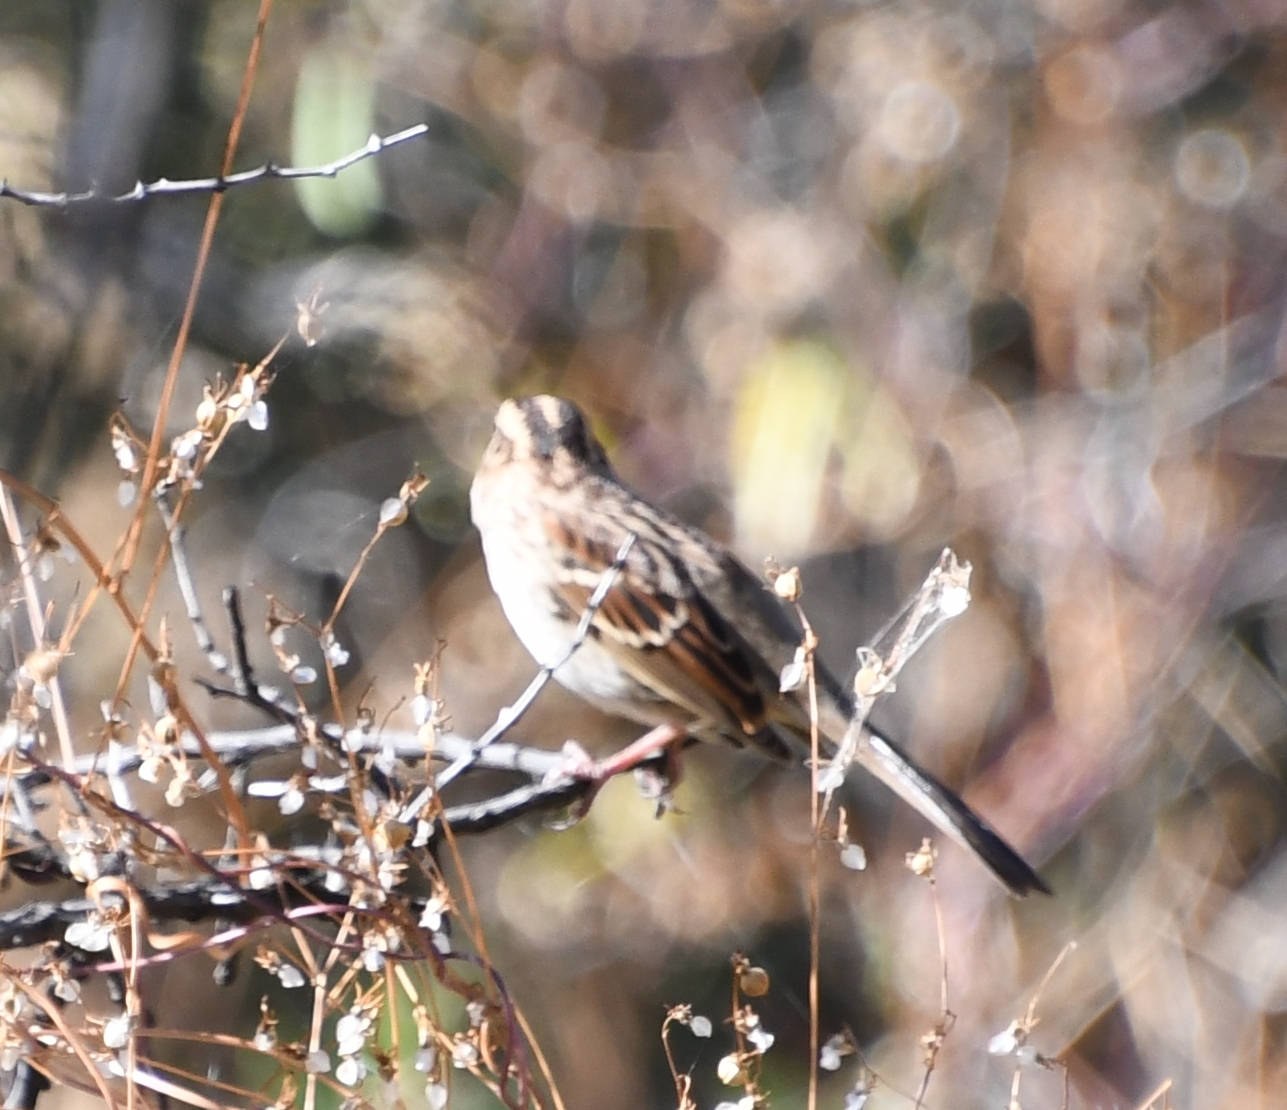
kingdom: Animalia
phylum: Chordata
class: Aves
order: Passeriformes
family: Passerellidae
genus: Zonotrichia
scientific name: Zonotrichia albicollis
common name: White-throated sparrow
